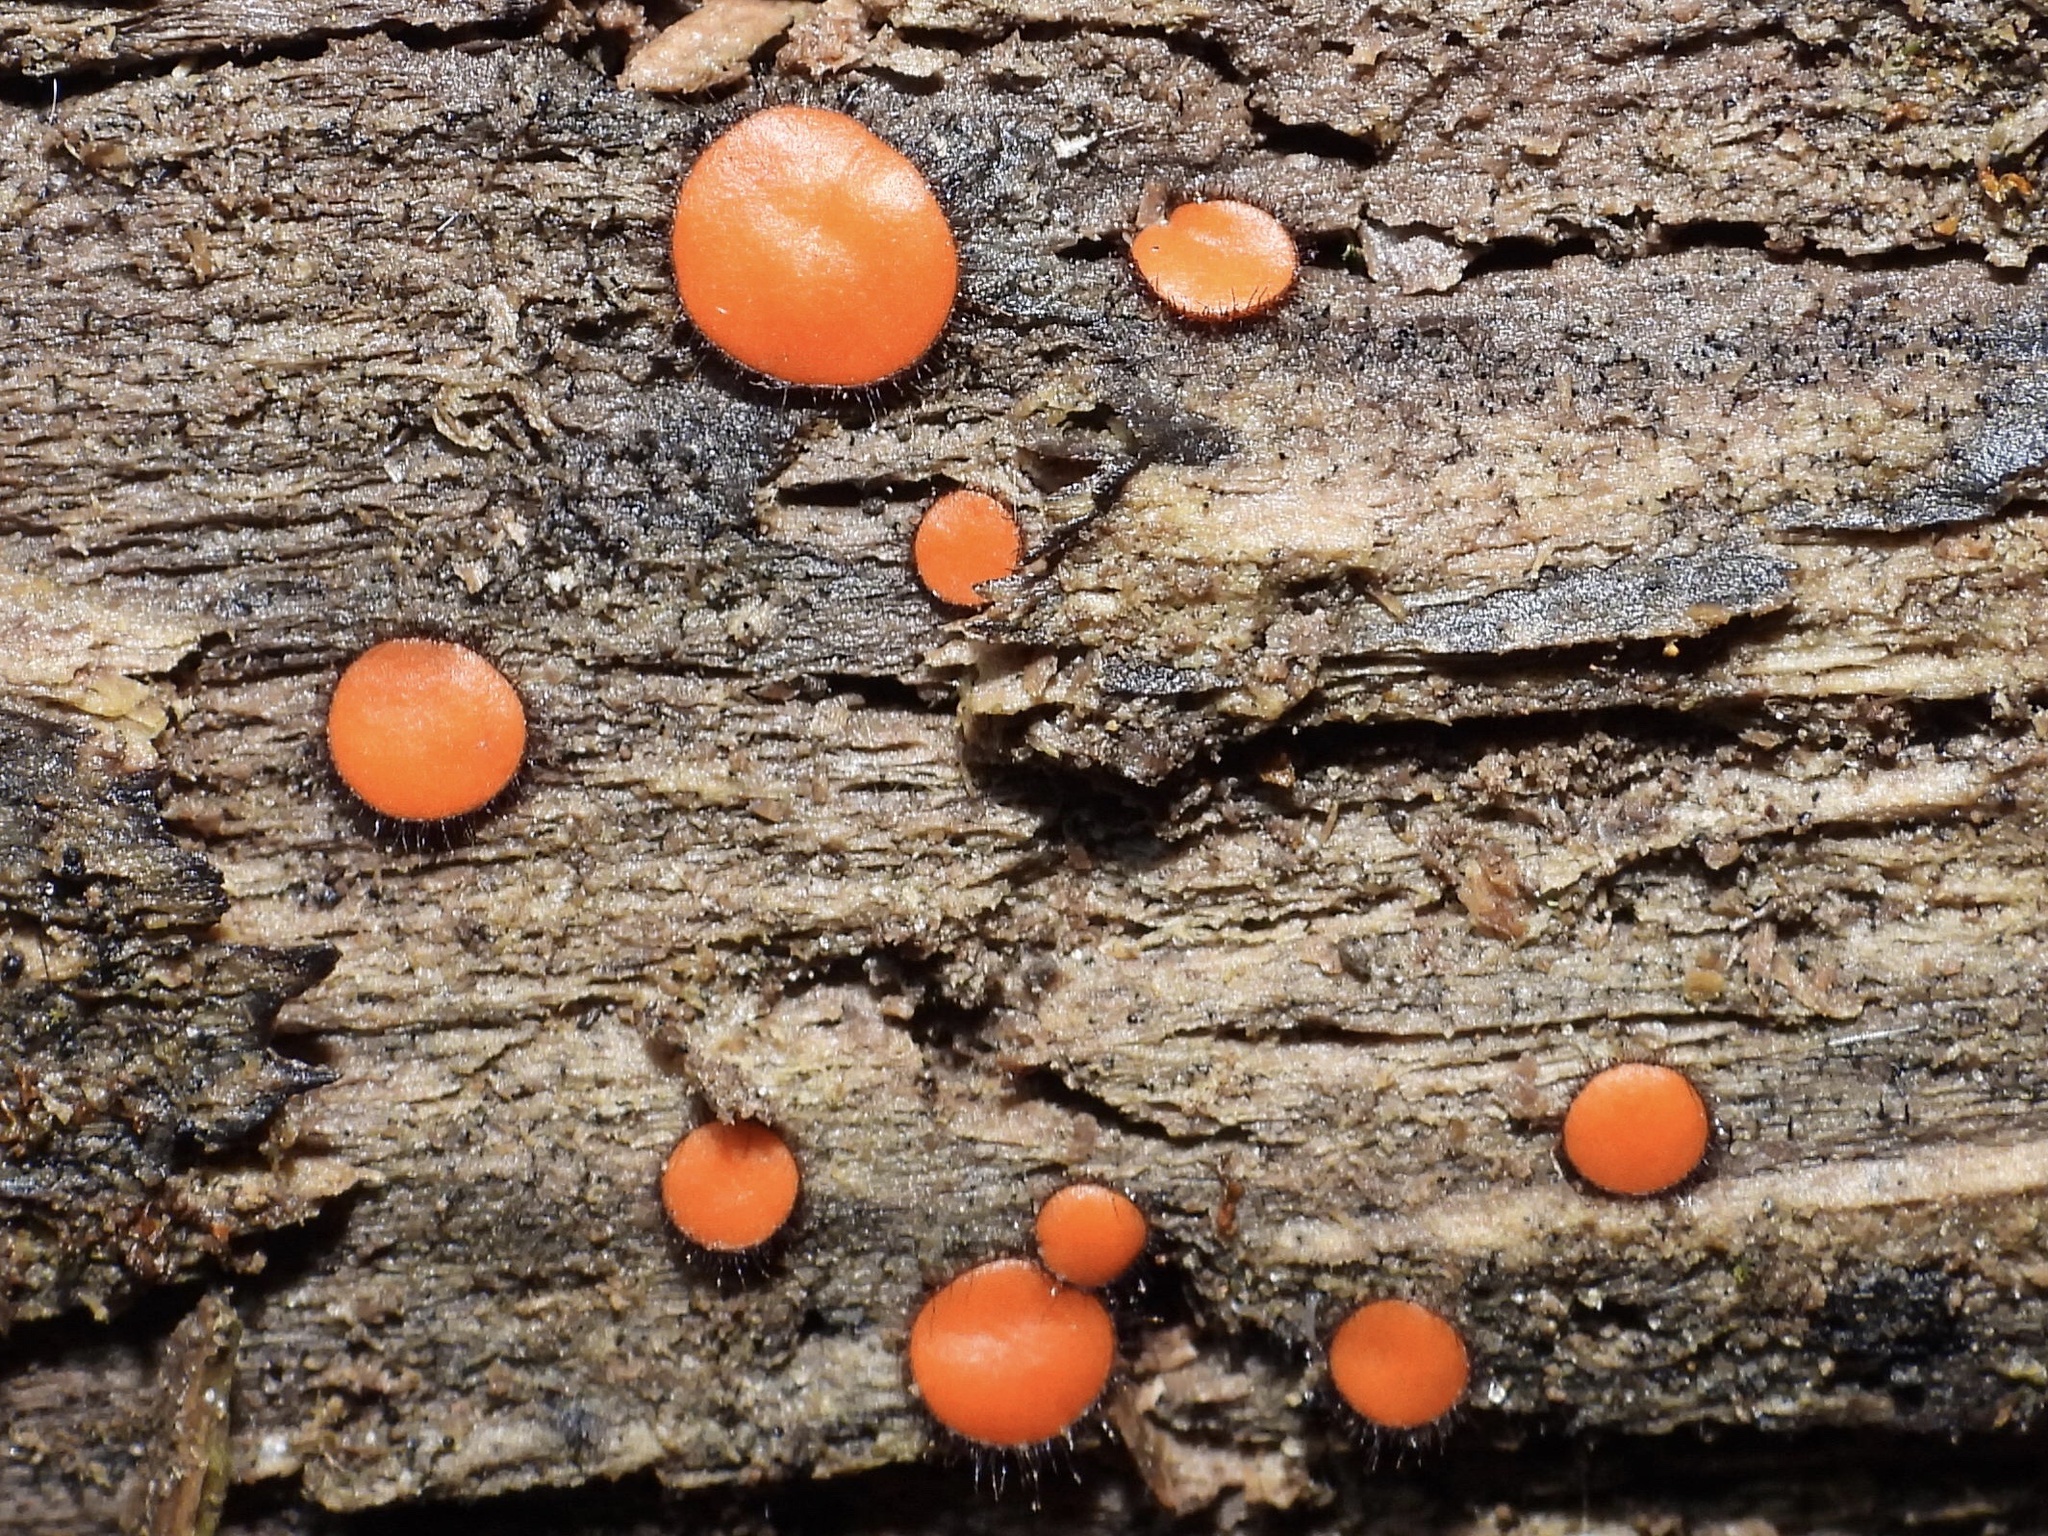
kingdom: Fungi
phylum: Ascomycota
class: Pezizomycetes
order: Pezizales
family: Pyronemataceae
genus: Scutellinia
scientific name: Scutellinia scutellata
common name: Common eyelash
